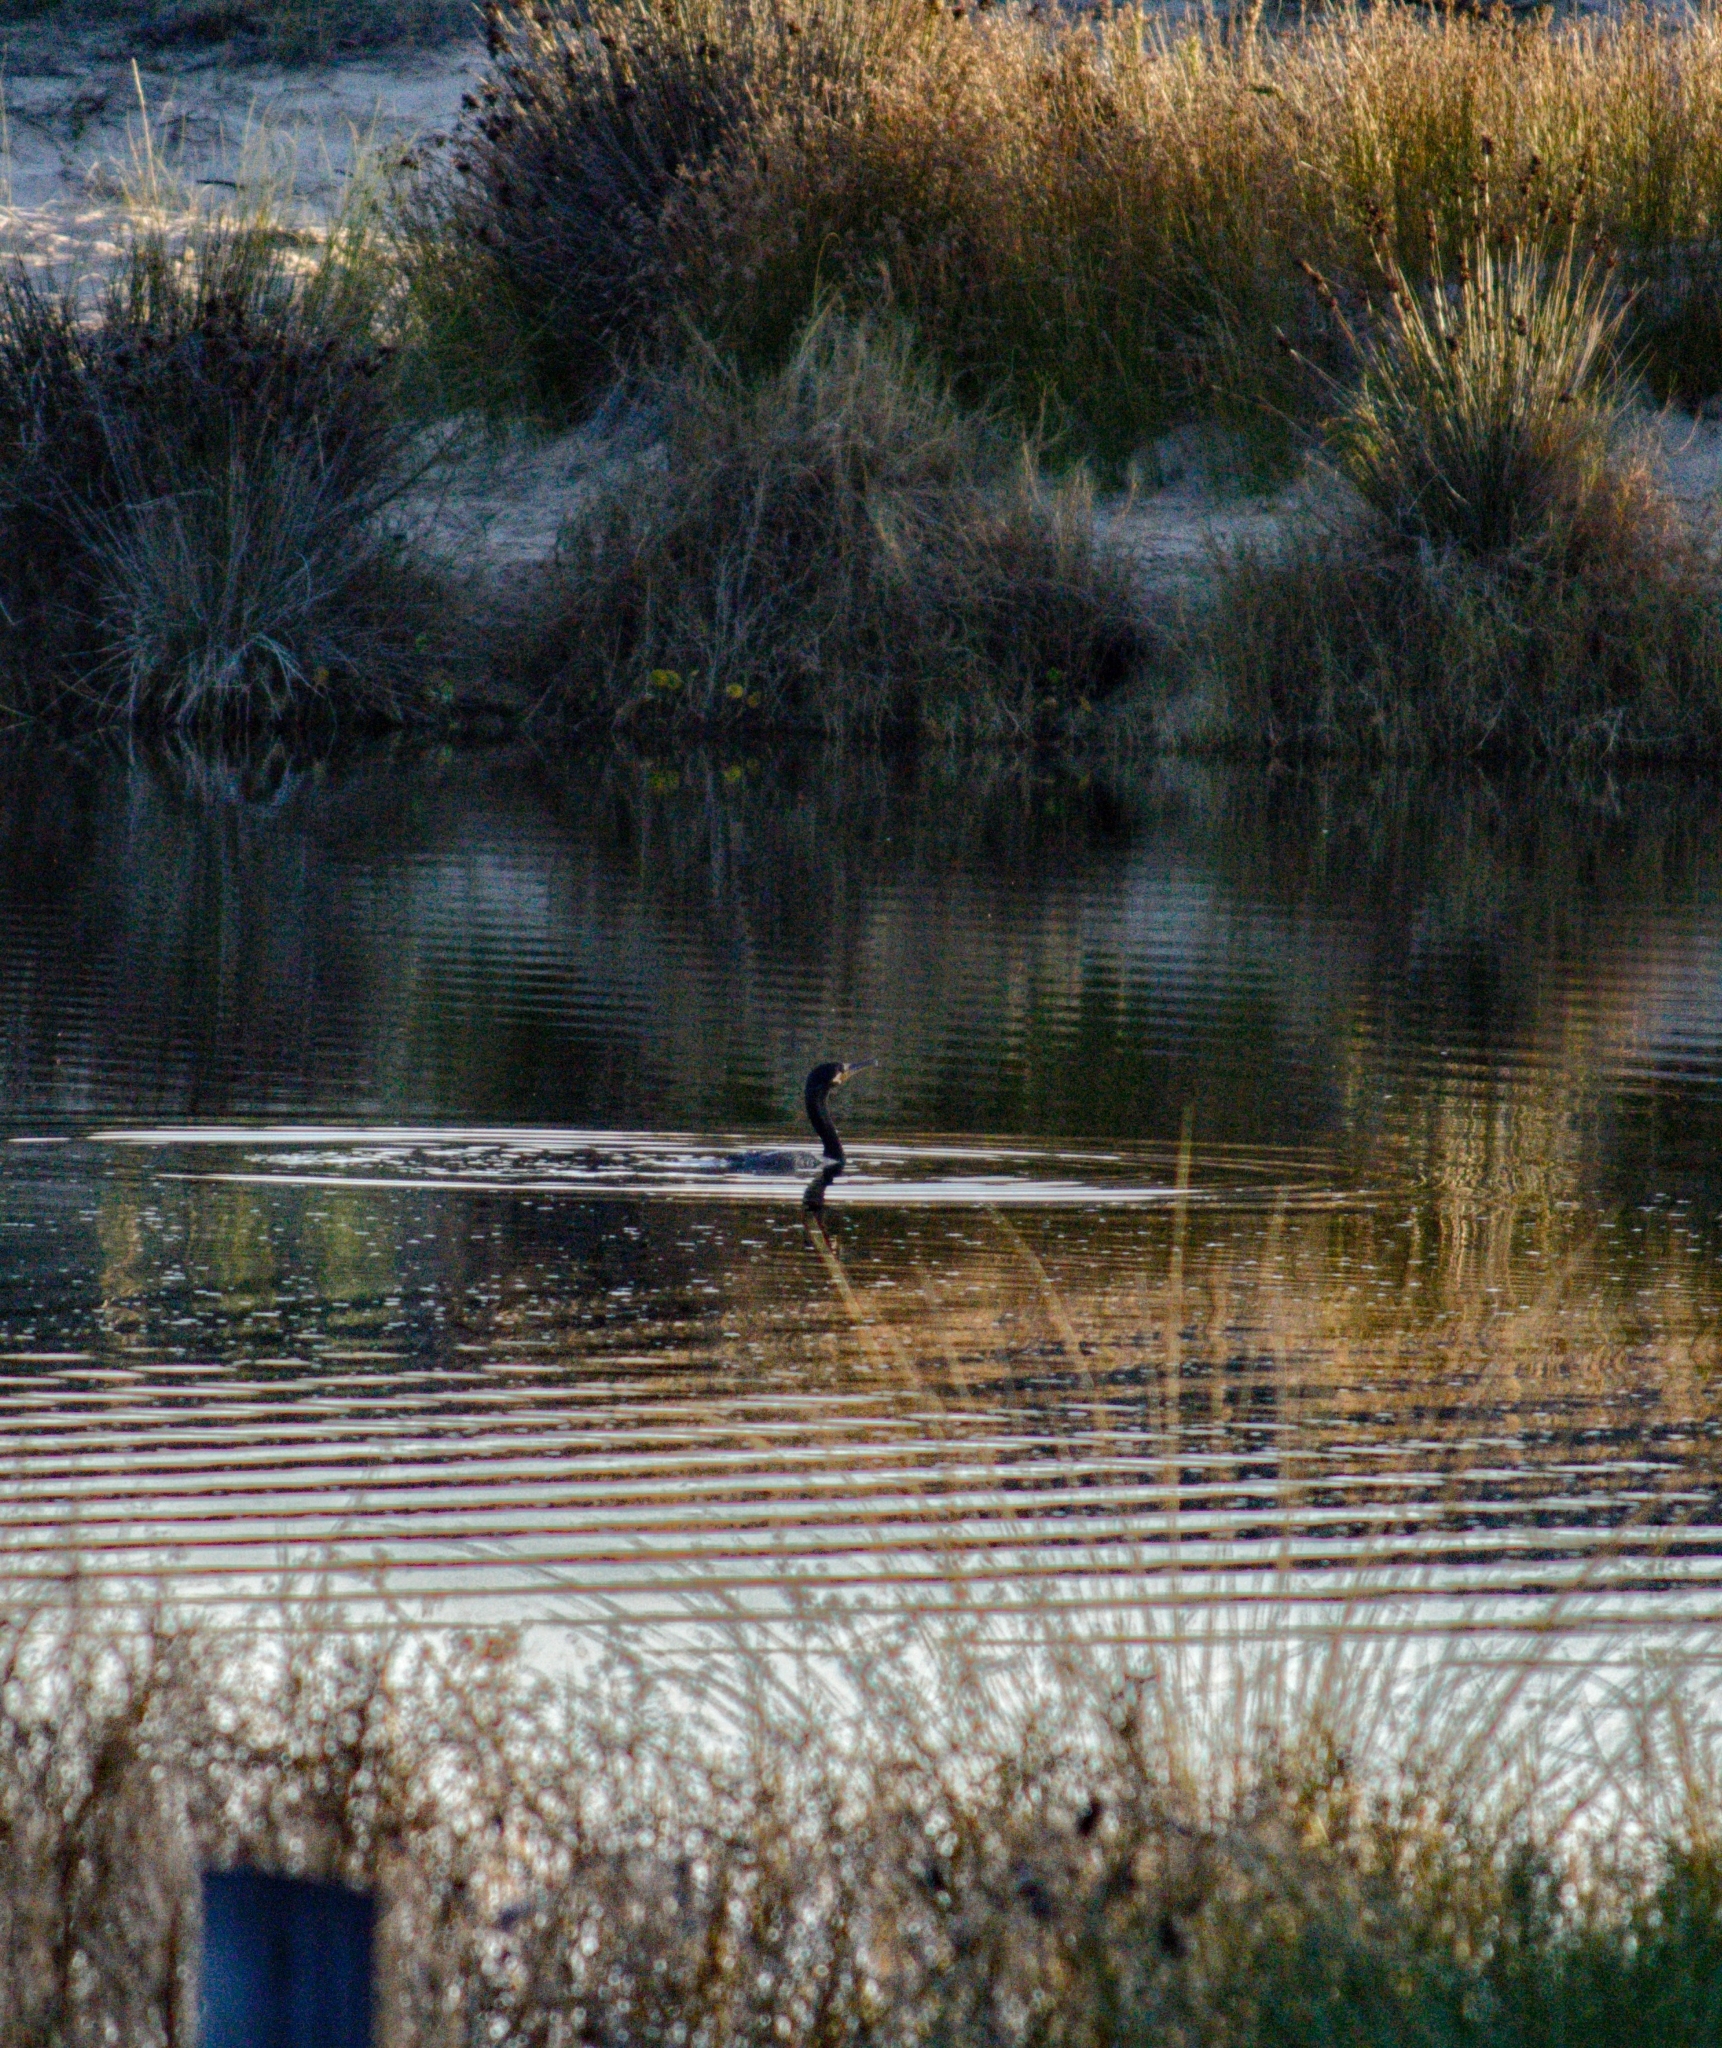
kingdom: Animalia
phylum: Chordata
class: Aves
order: Suliformes
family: Phalacrocoracidae
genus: Phalacrocorax
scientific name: Phalacrocorax brasilianus
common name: Neotropic cormorant
